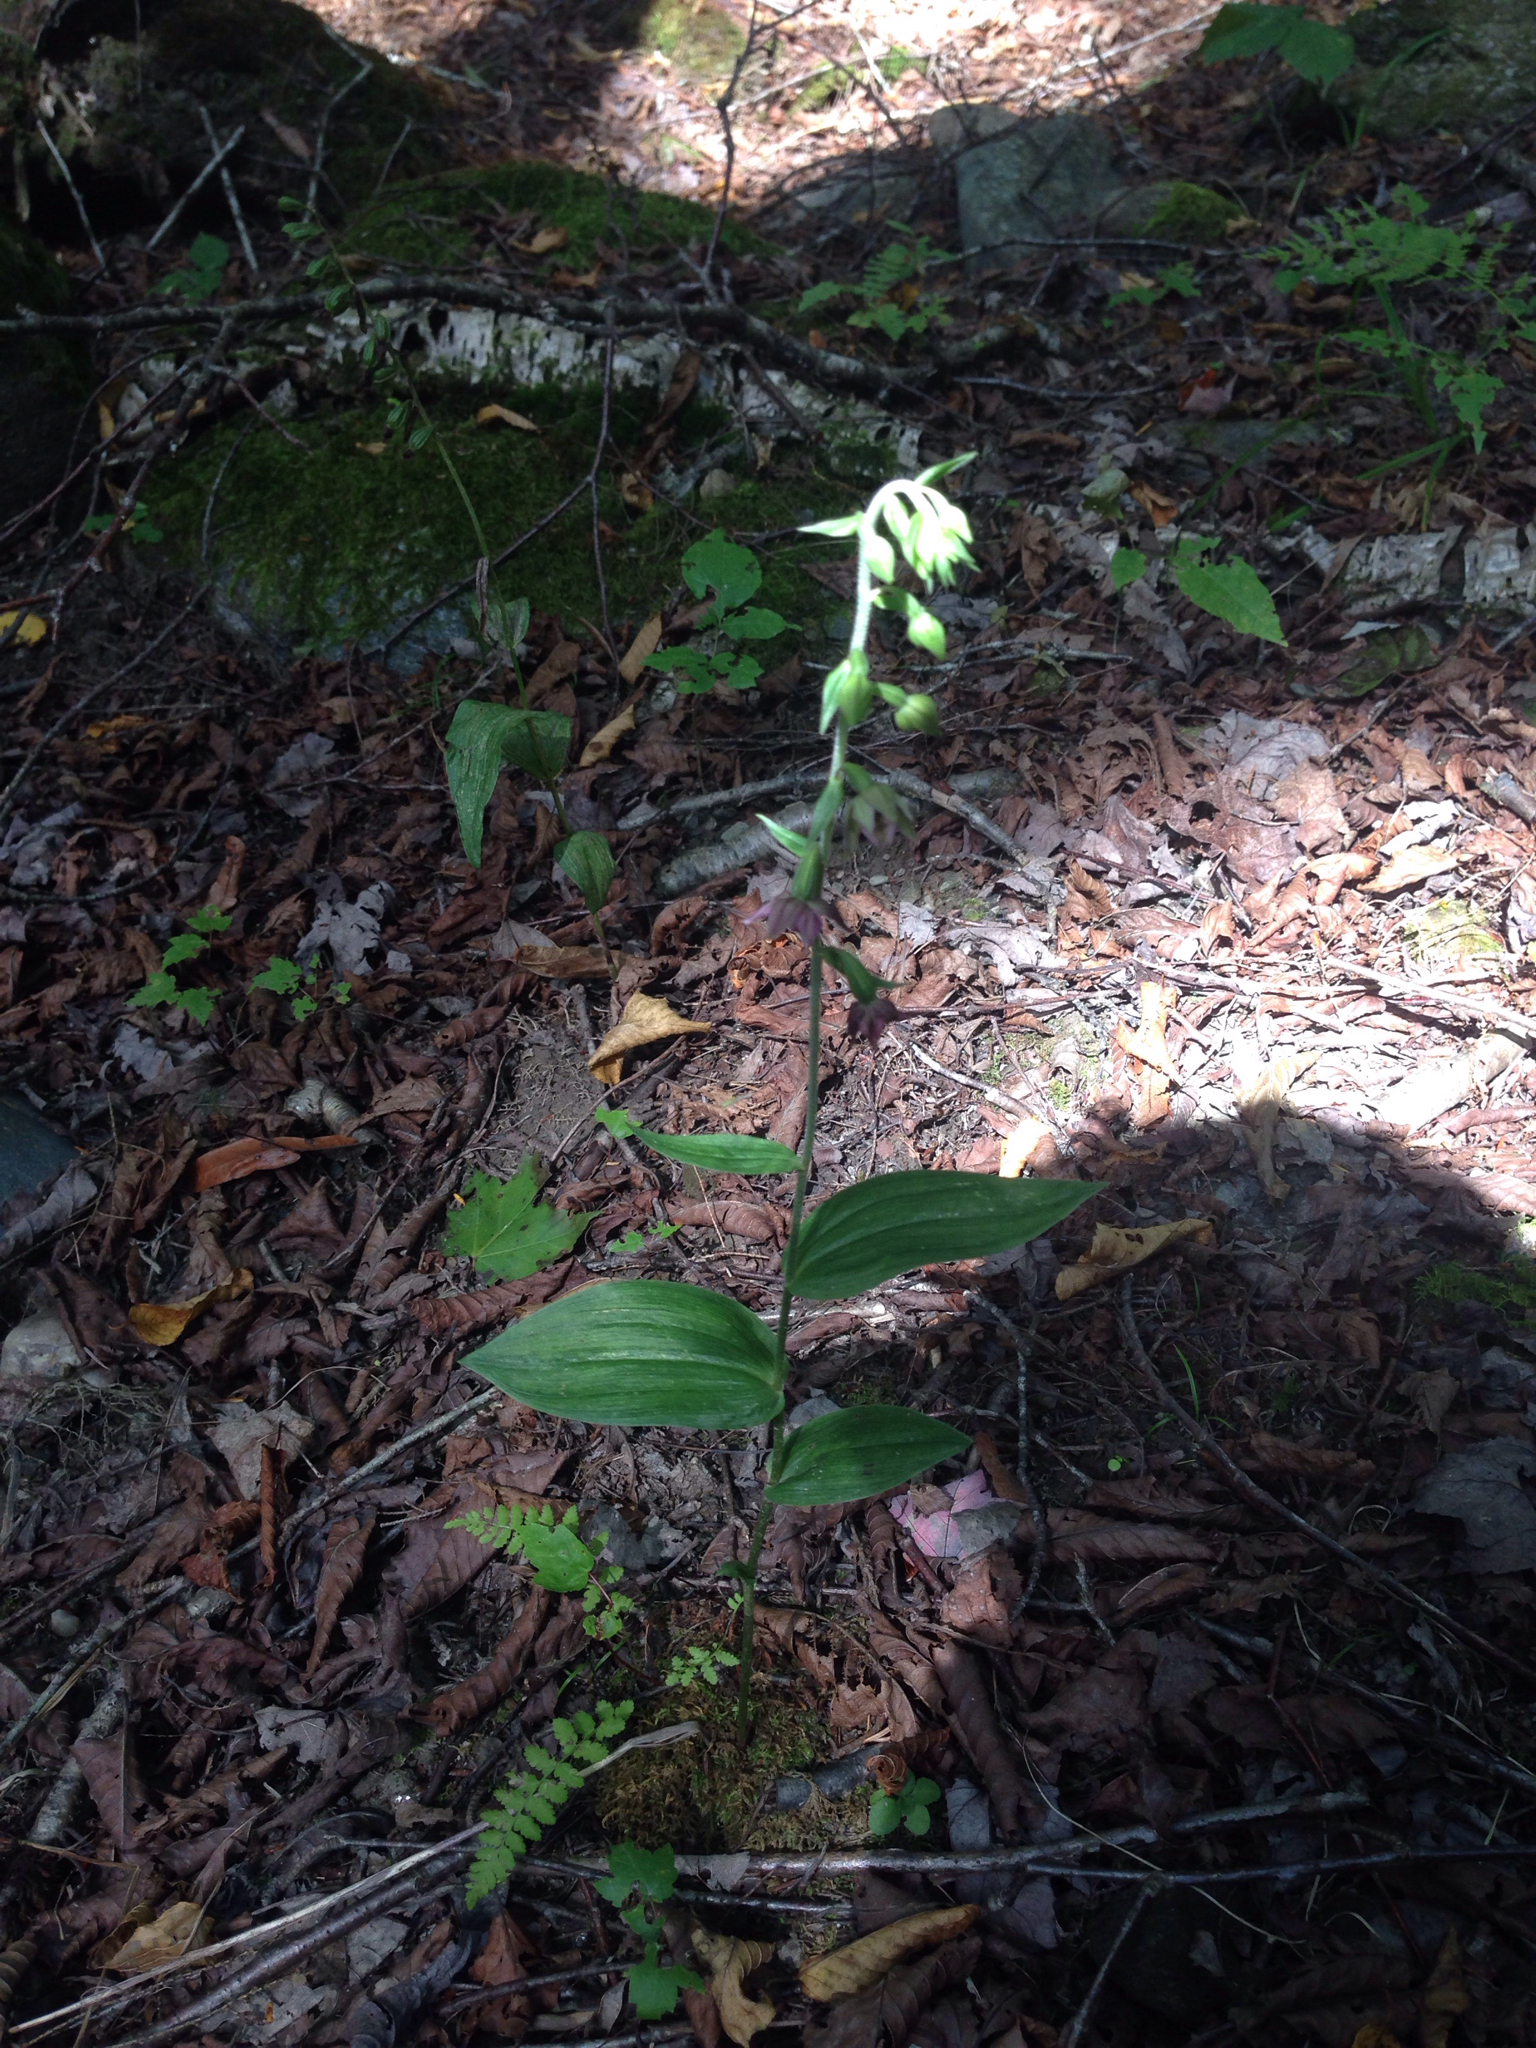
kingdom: Plantae
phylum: Tracheophyta
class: Liliopsida
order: Asparagales
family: Orchidaceae
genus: Epipactis
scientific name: Epipactis helleborine
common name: Broad-leaved helleborine
